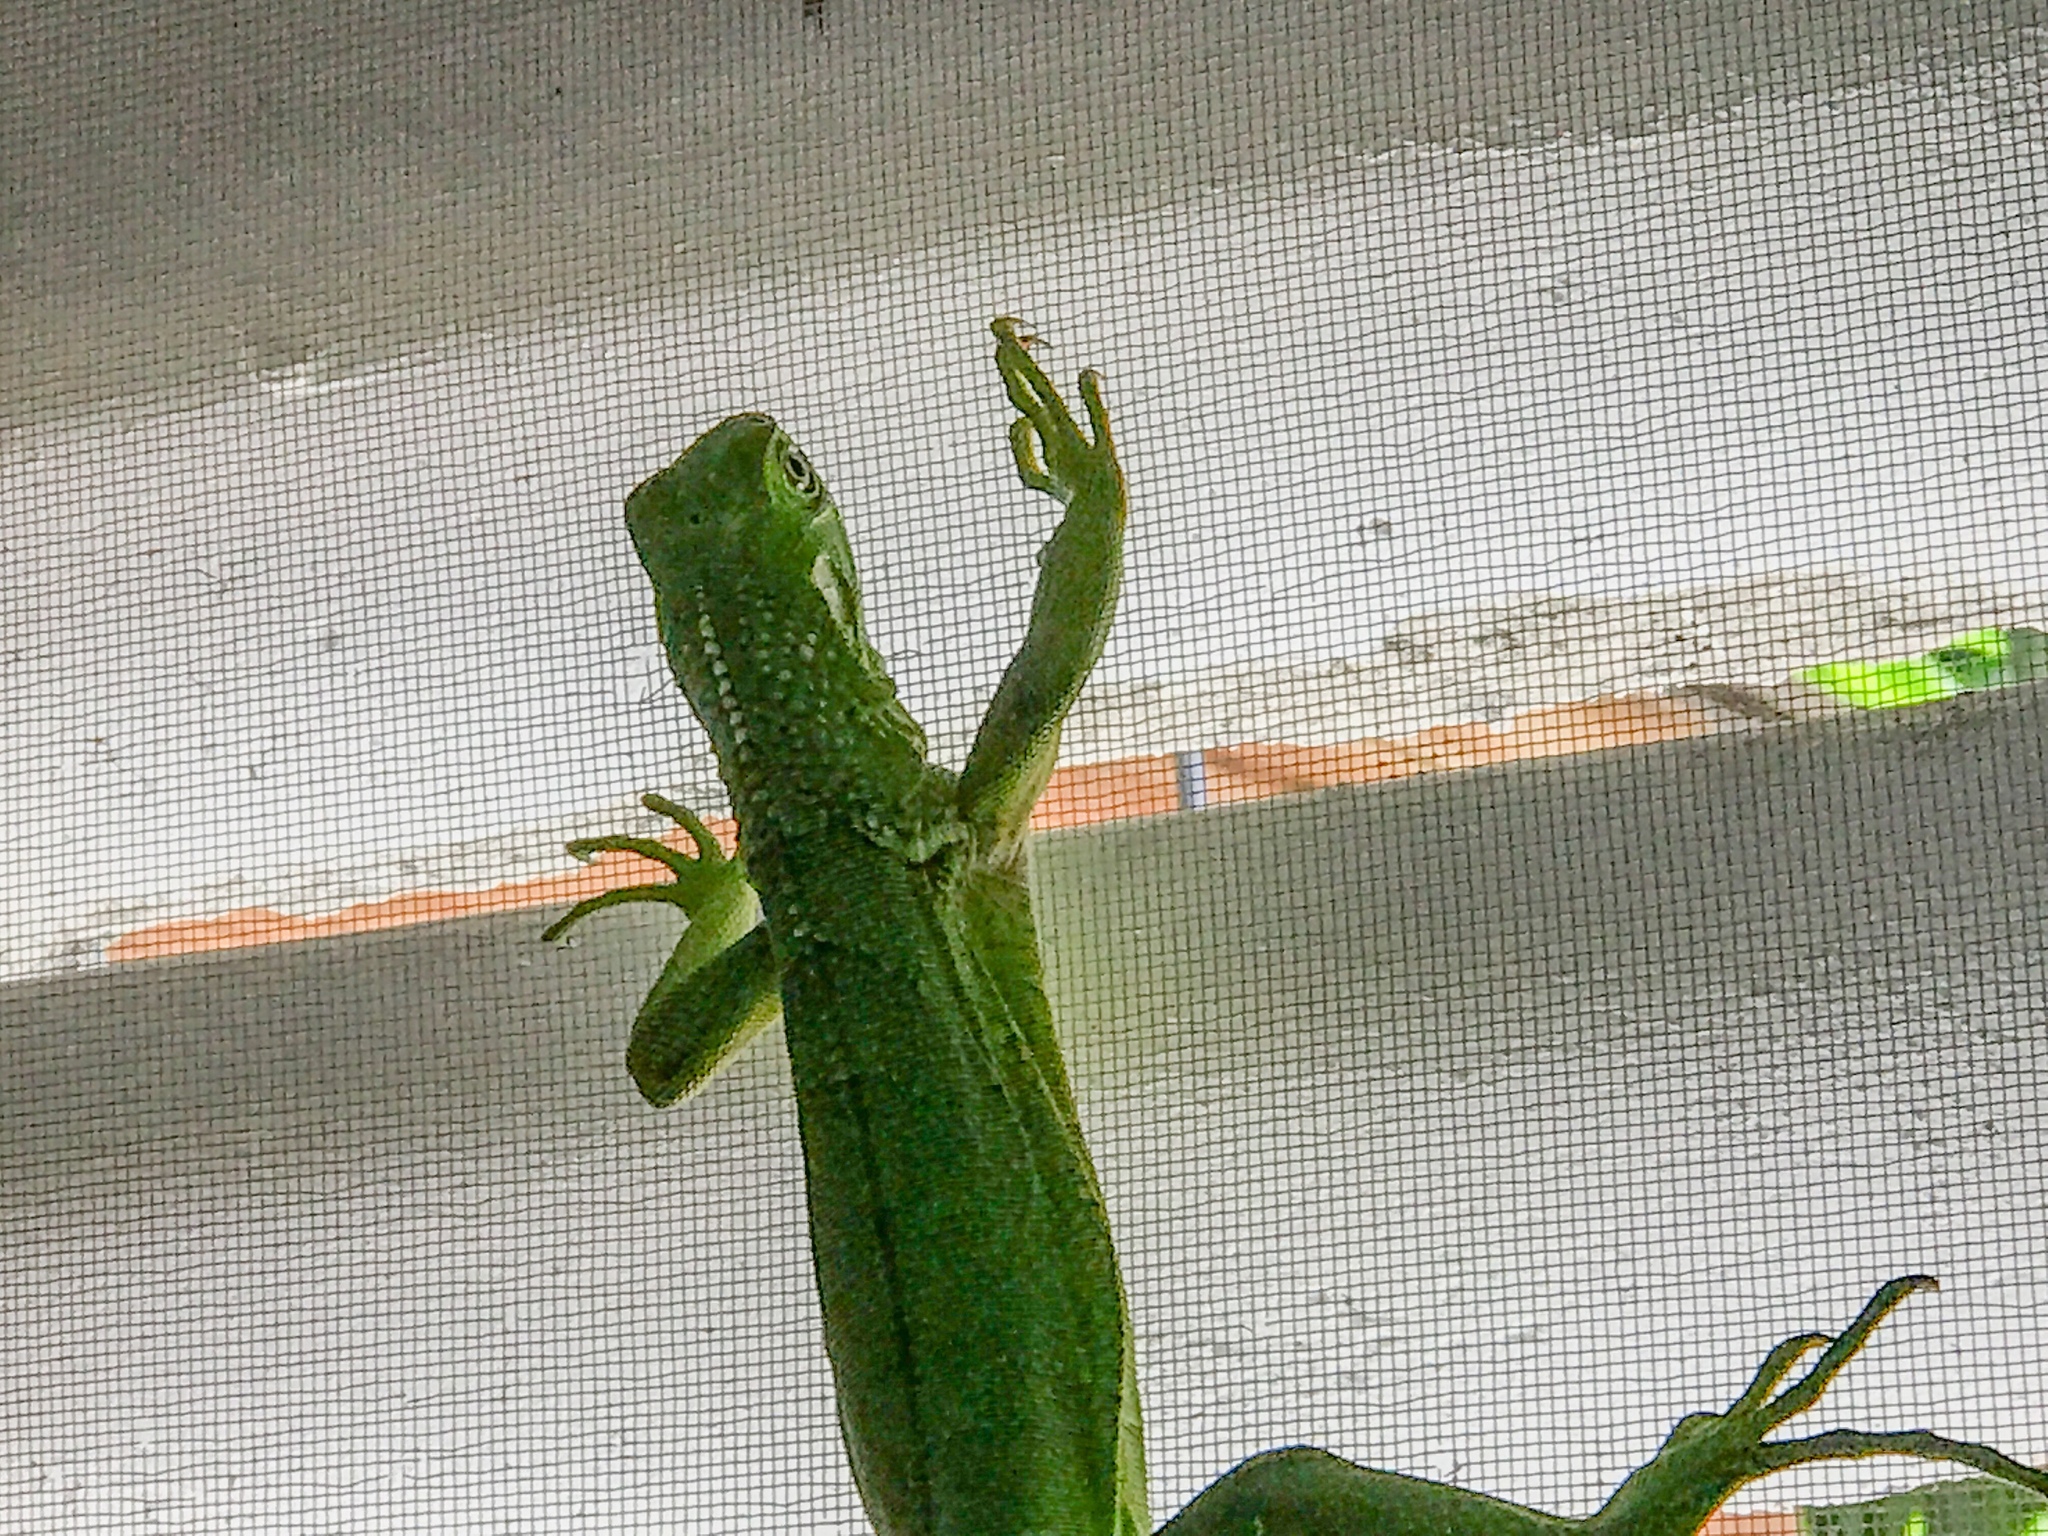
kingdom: Animalia
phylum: Chordata
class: Squamata
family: Iguanidae
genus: Iguana
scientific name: Iguana iguana
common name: Green iguana
